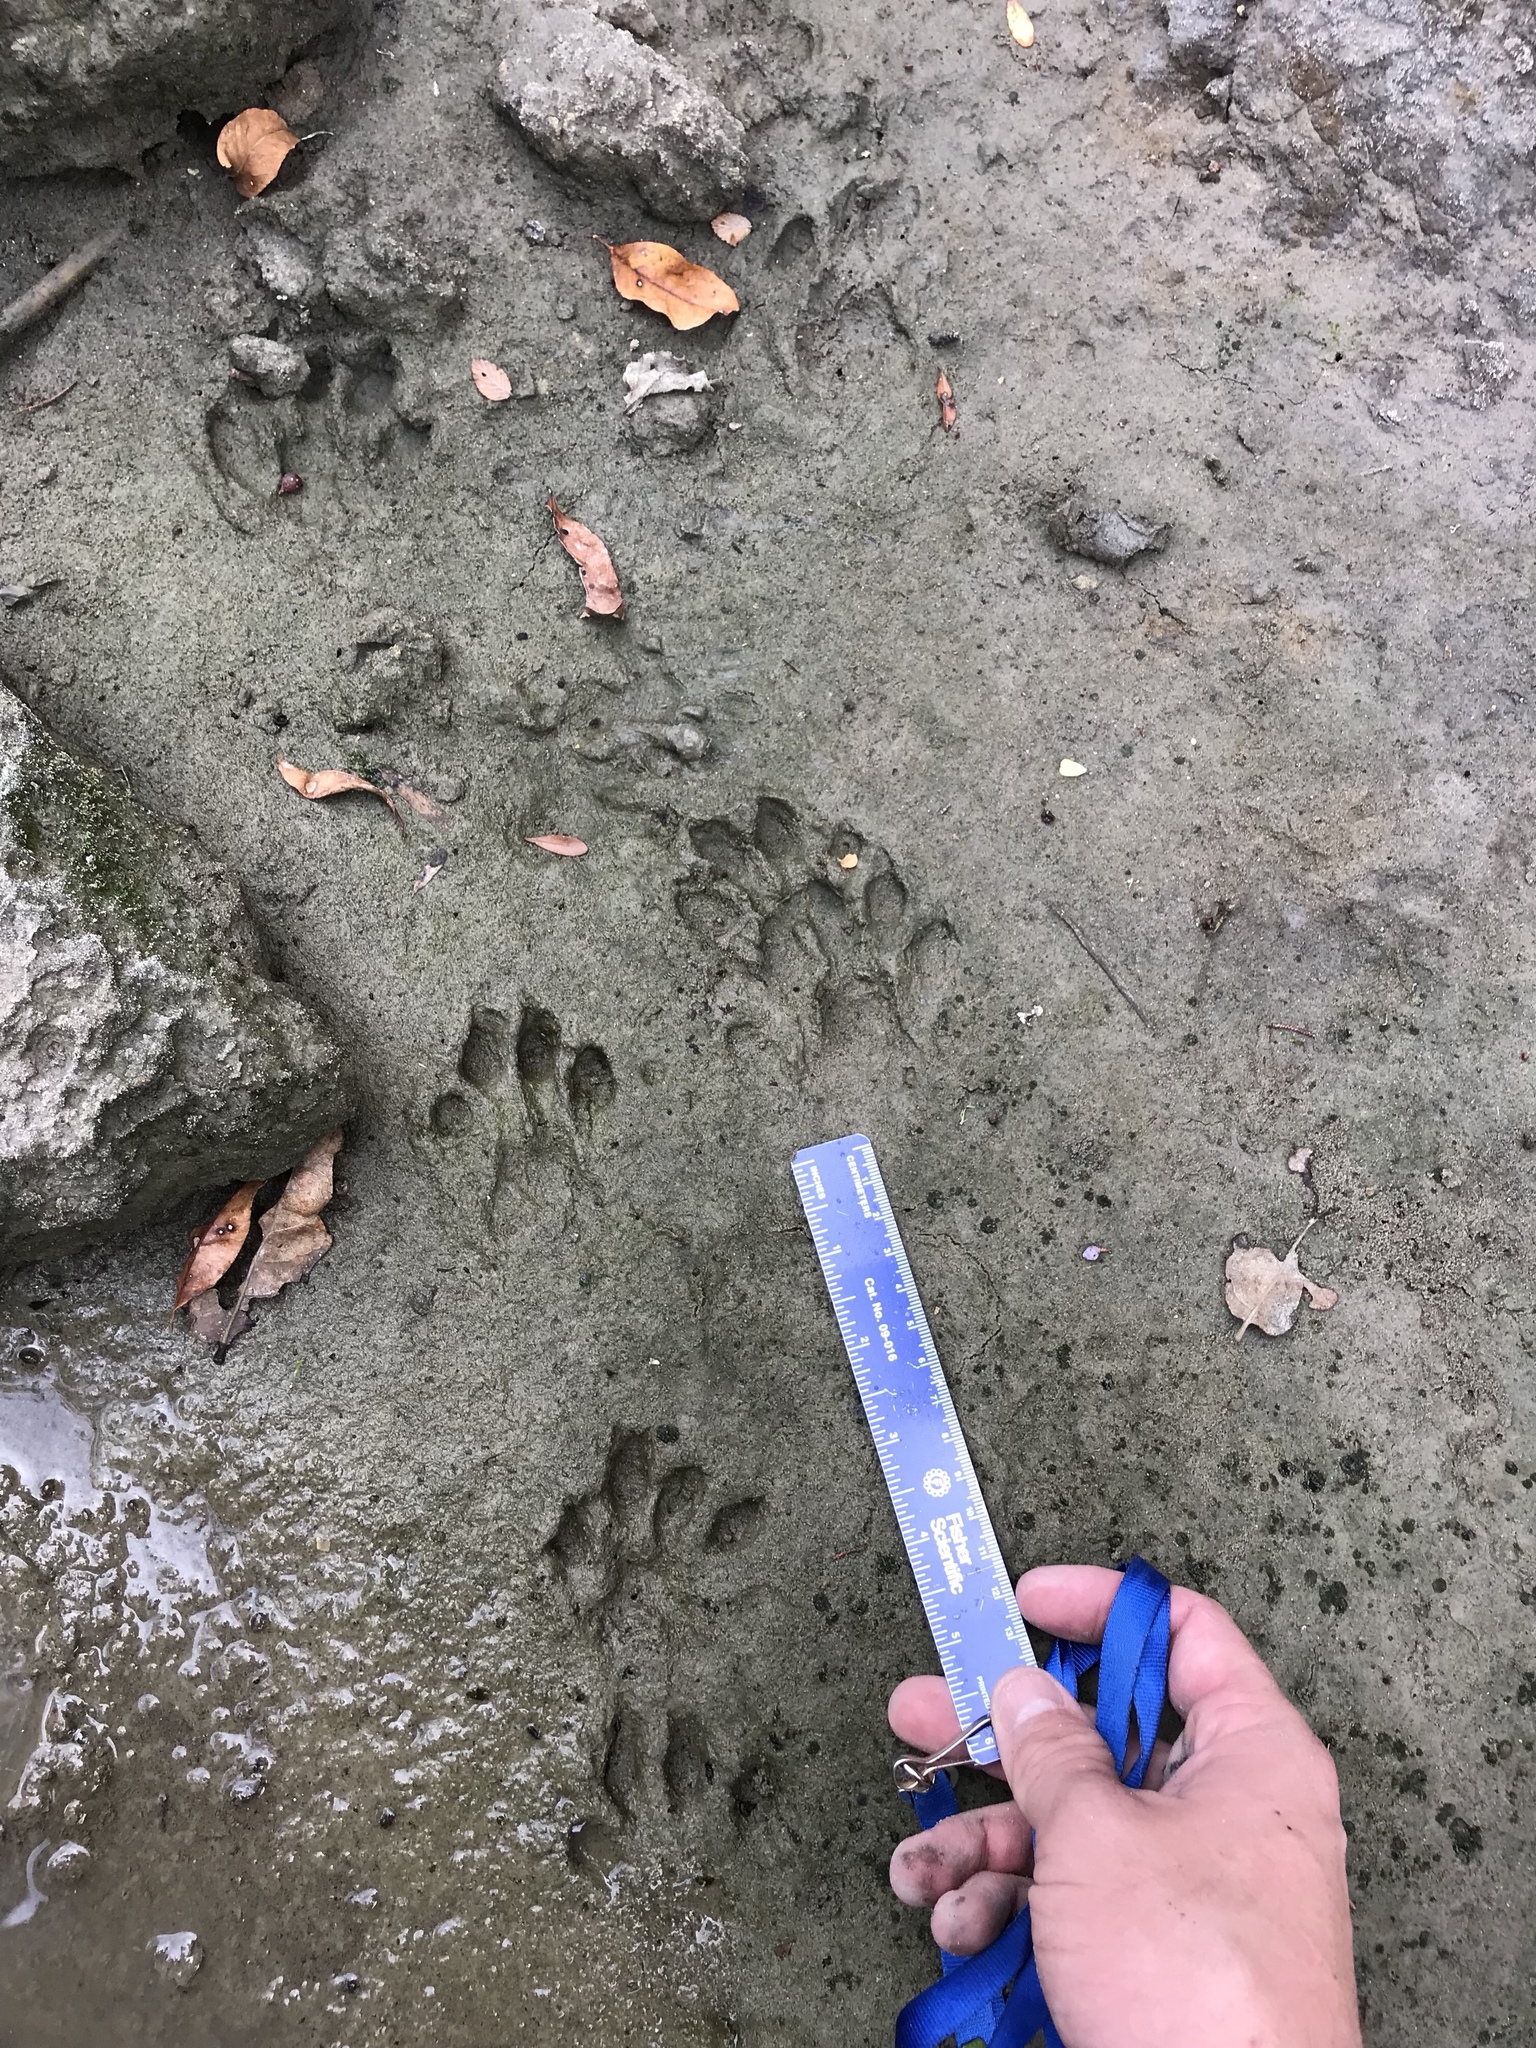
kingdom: Animalia
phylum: Chordata
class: Mammalia
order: Carnivora
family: Mustelidae
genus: Lontra
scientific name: Lontra canadensis
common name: North american river otter
